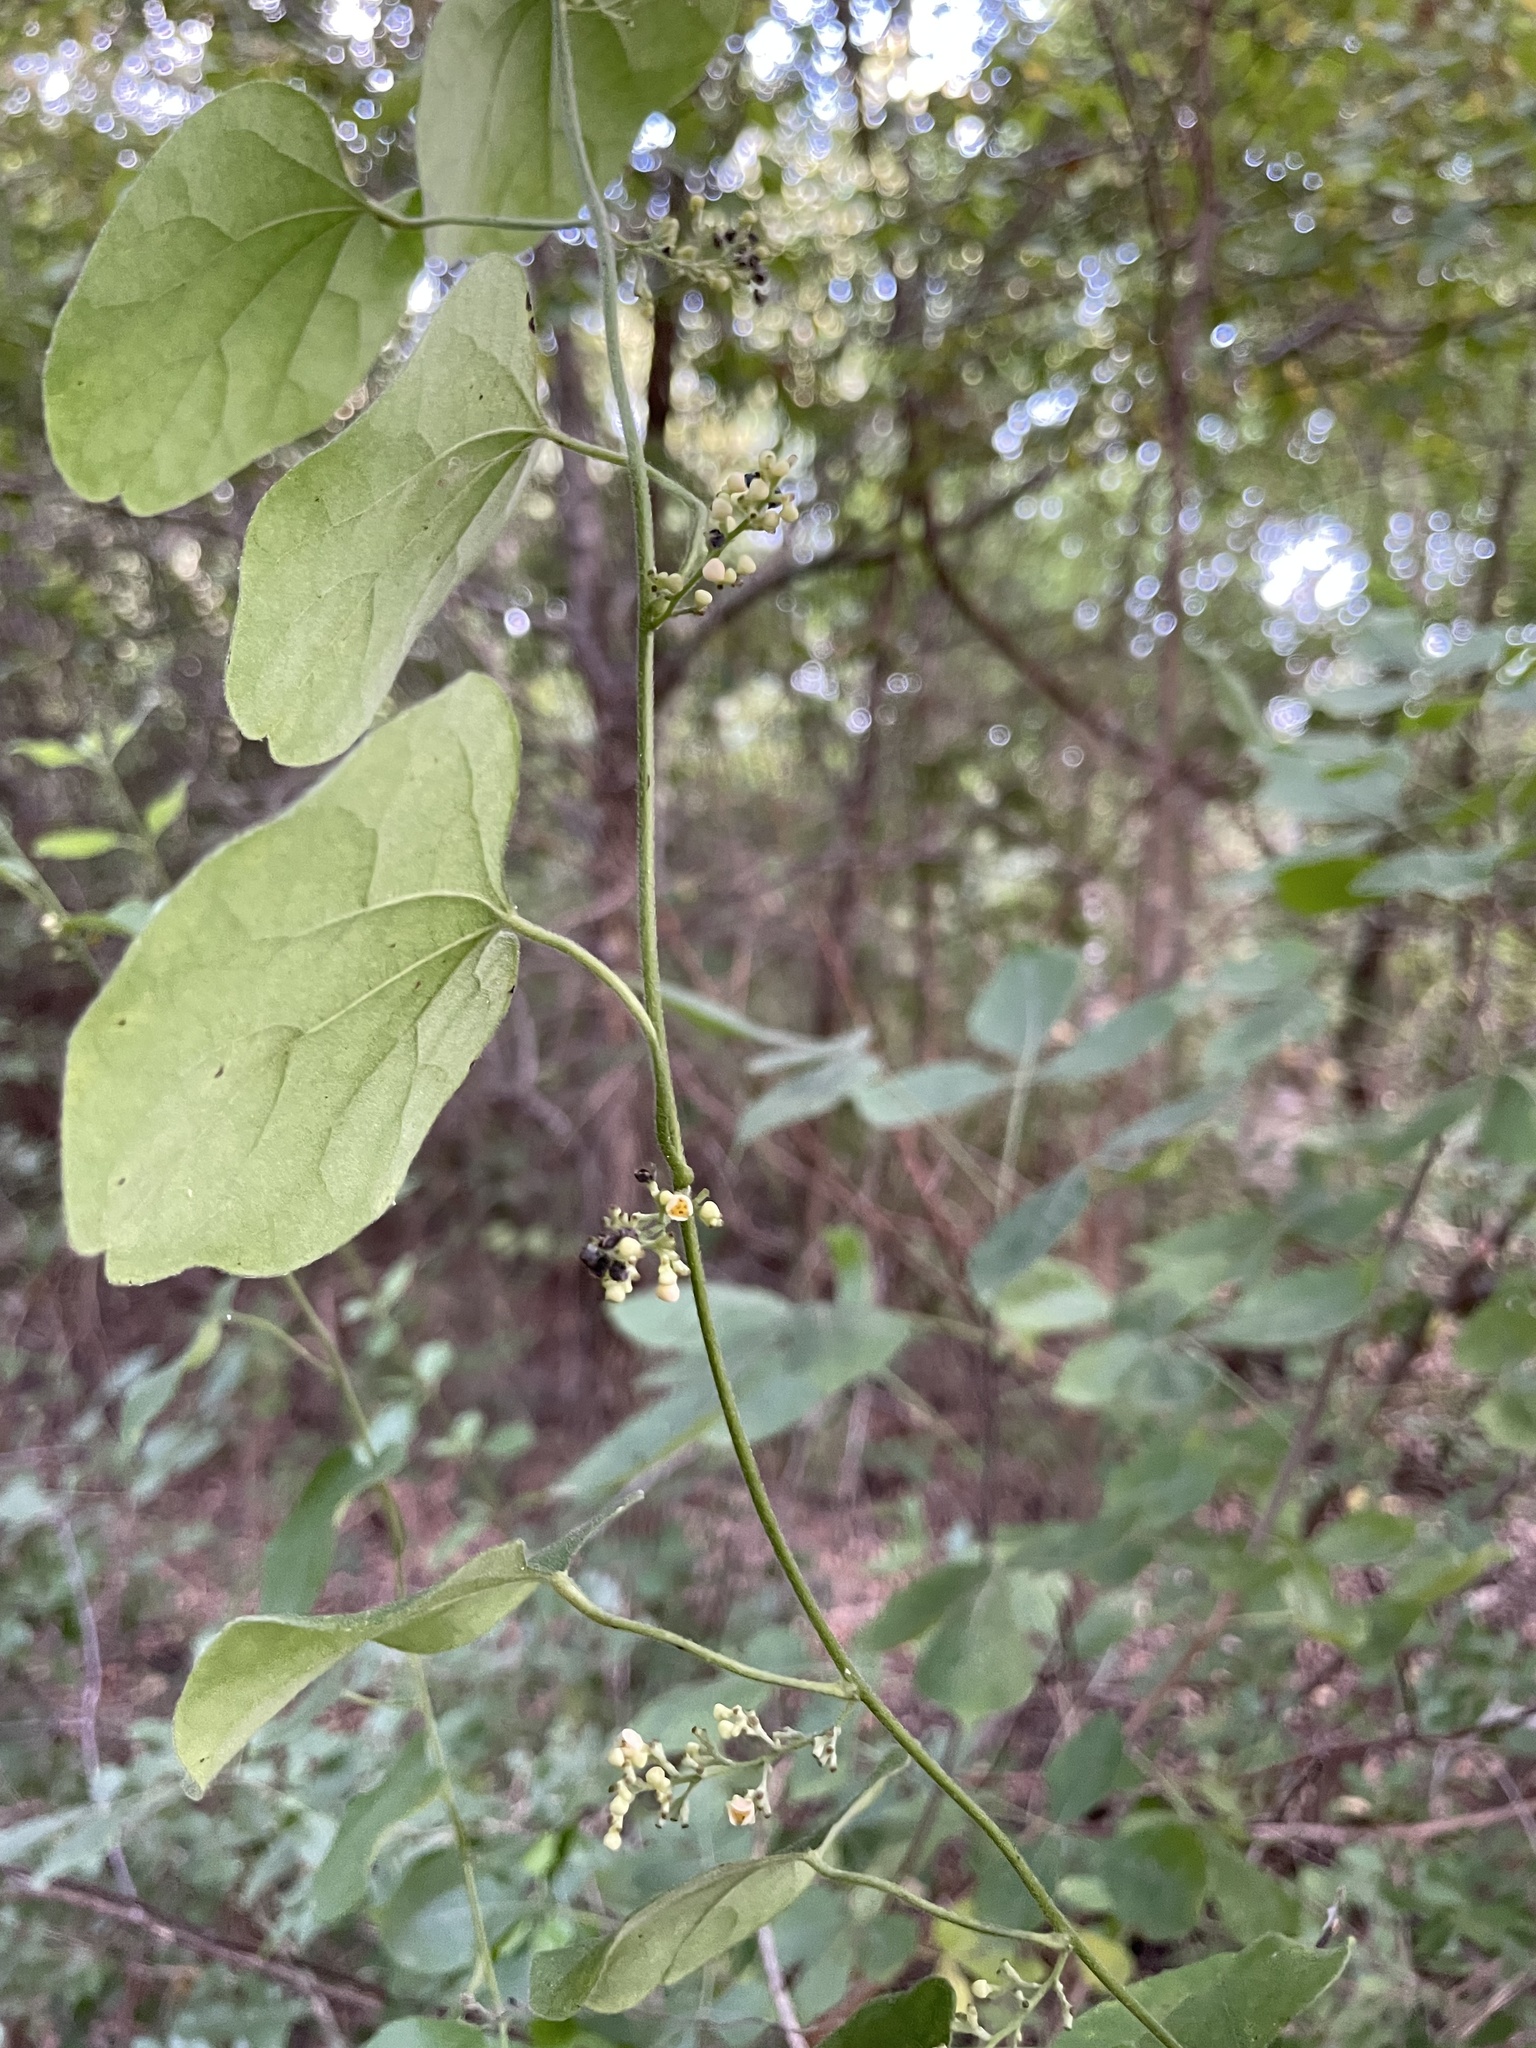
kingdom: Plantae
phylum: Tracheophyta
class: Magnoliopsida
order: Ranunculales
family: Menispermaceae
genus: Cocculus
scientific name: Cocculus carolinus
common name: Carolina moonseed
